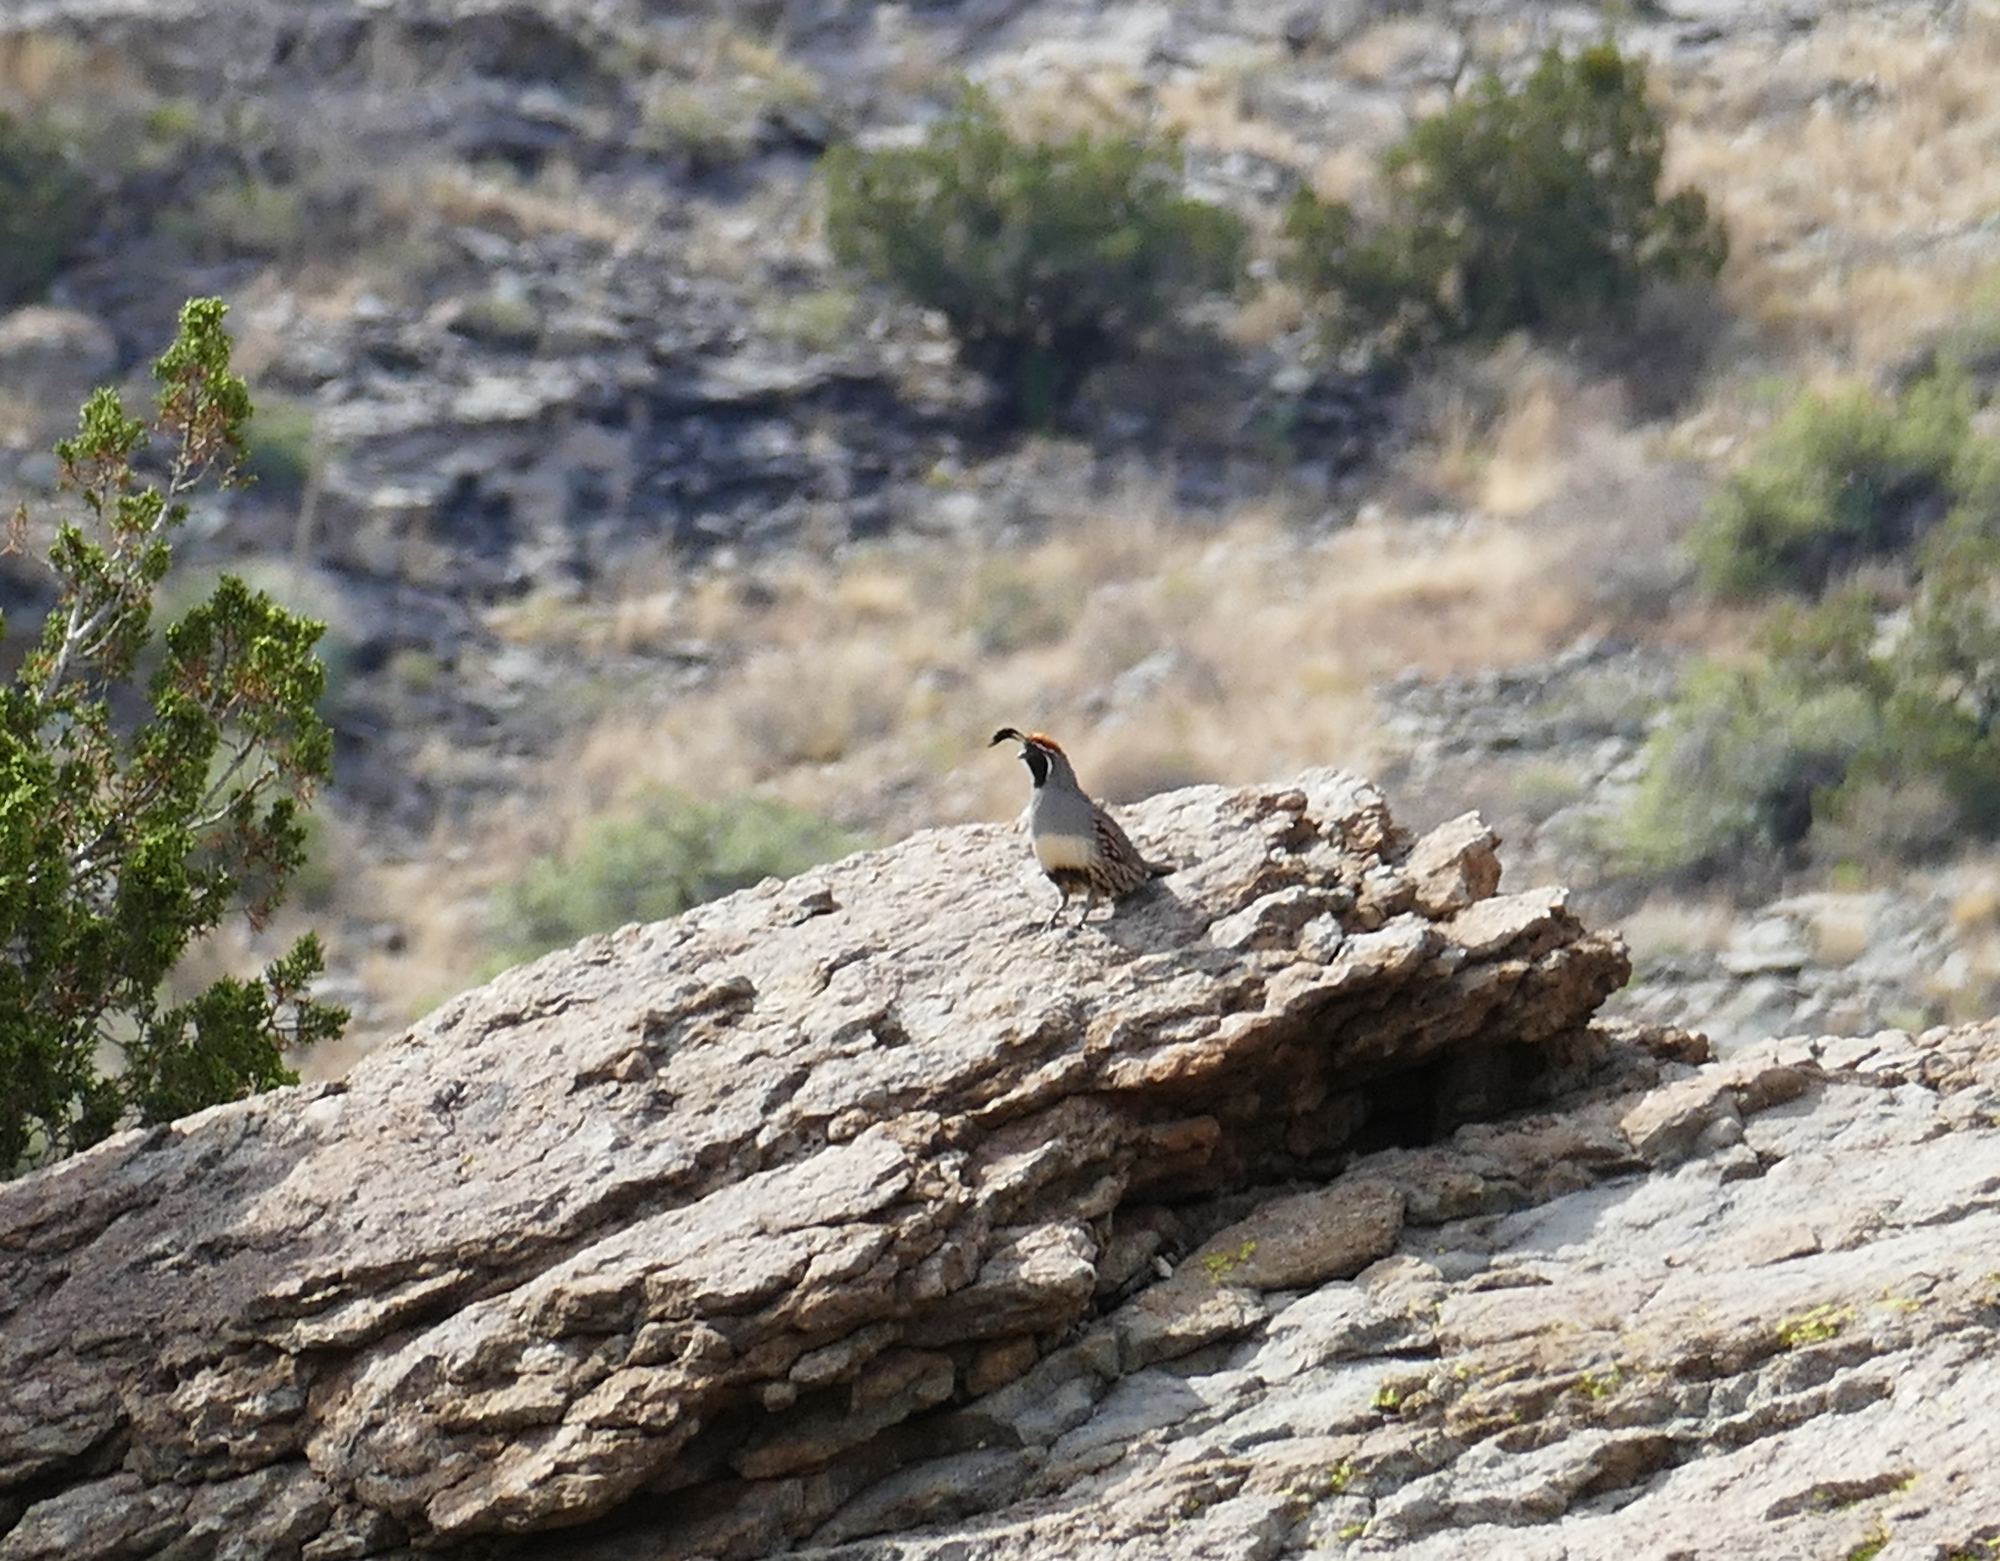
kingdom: Animalia
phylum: Chordata
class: Aves
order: Galliformes
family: Odontophoridae
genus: Callipepla
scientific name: Callipepla gambelii
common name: Gambel's quail
